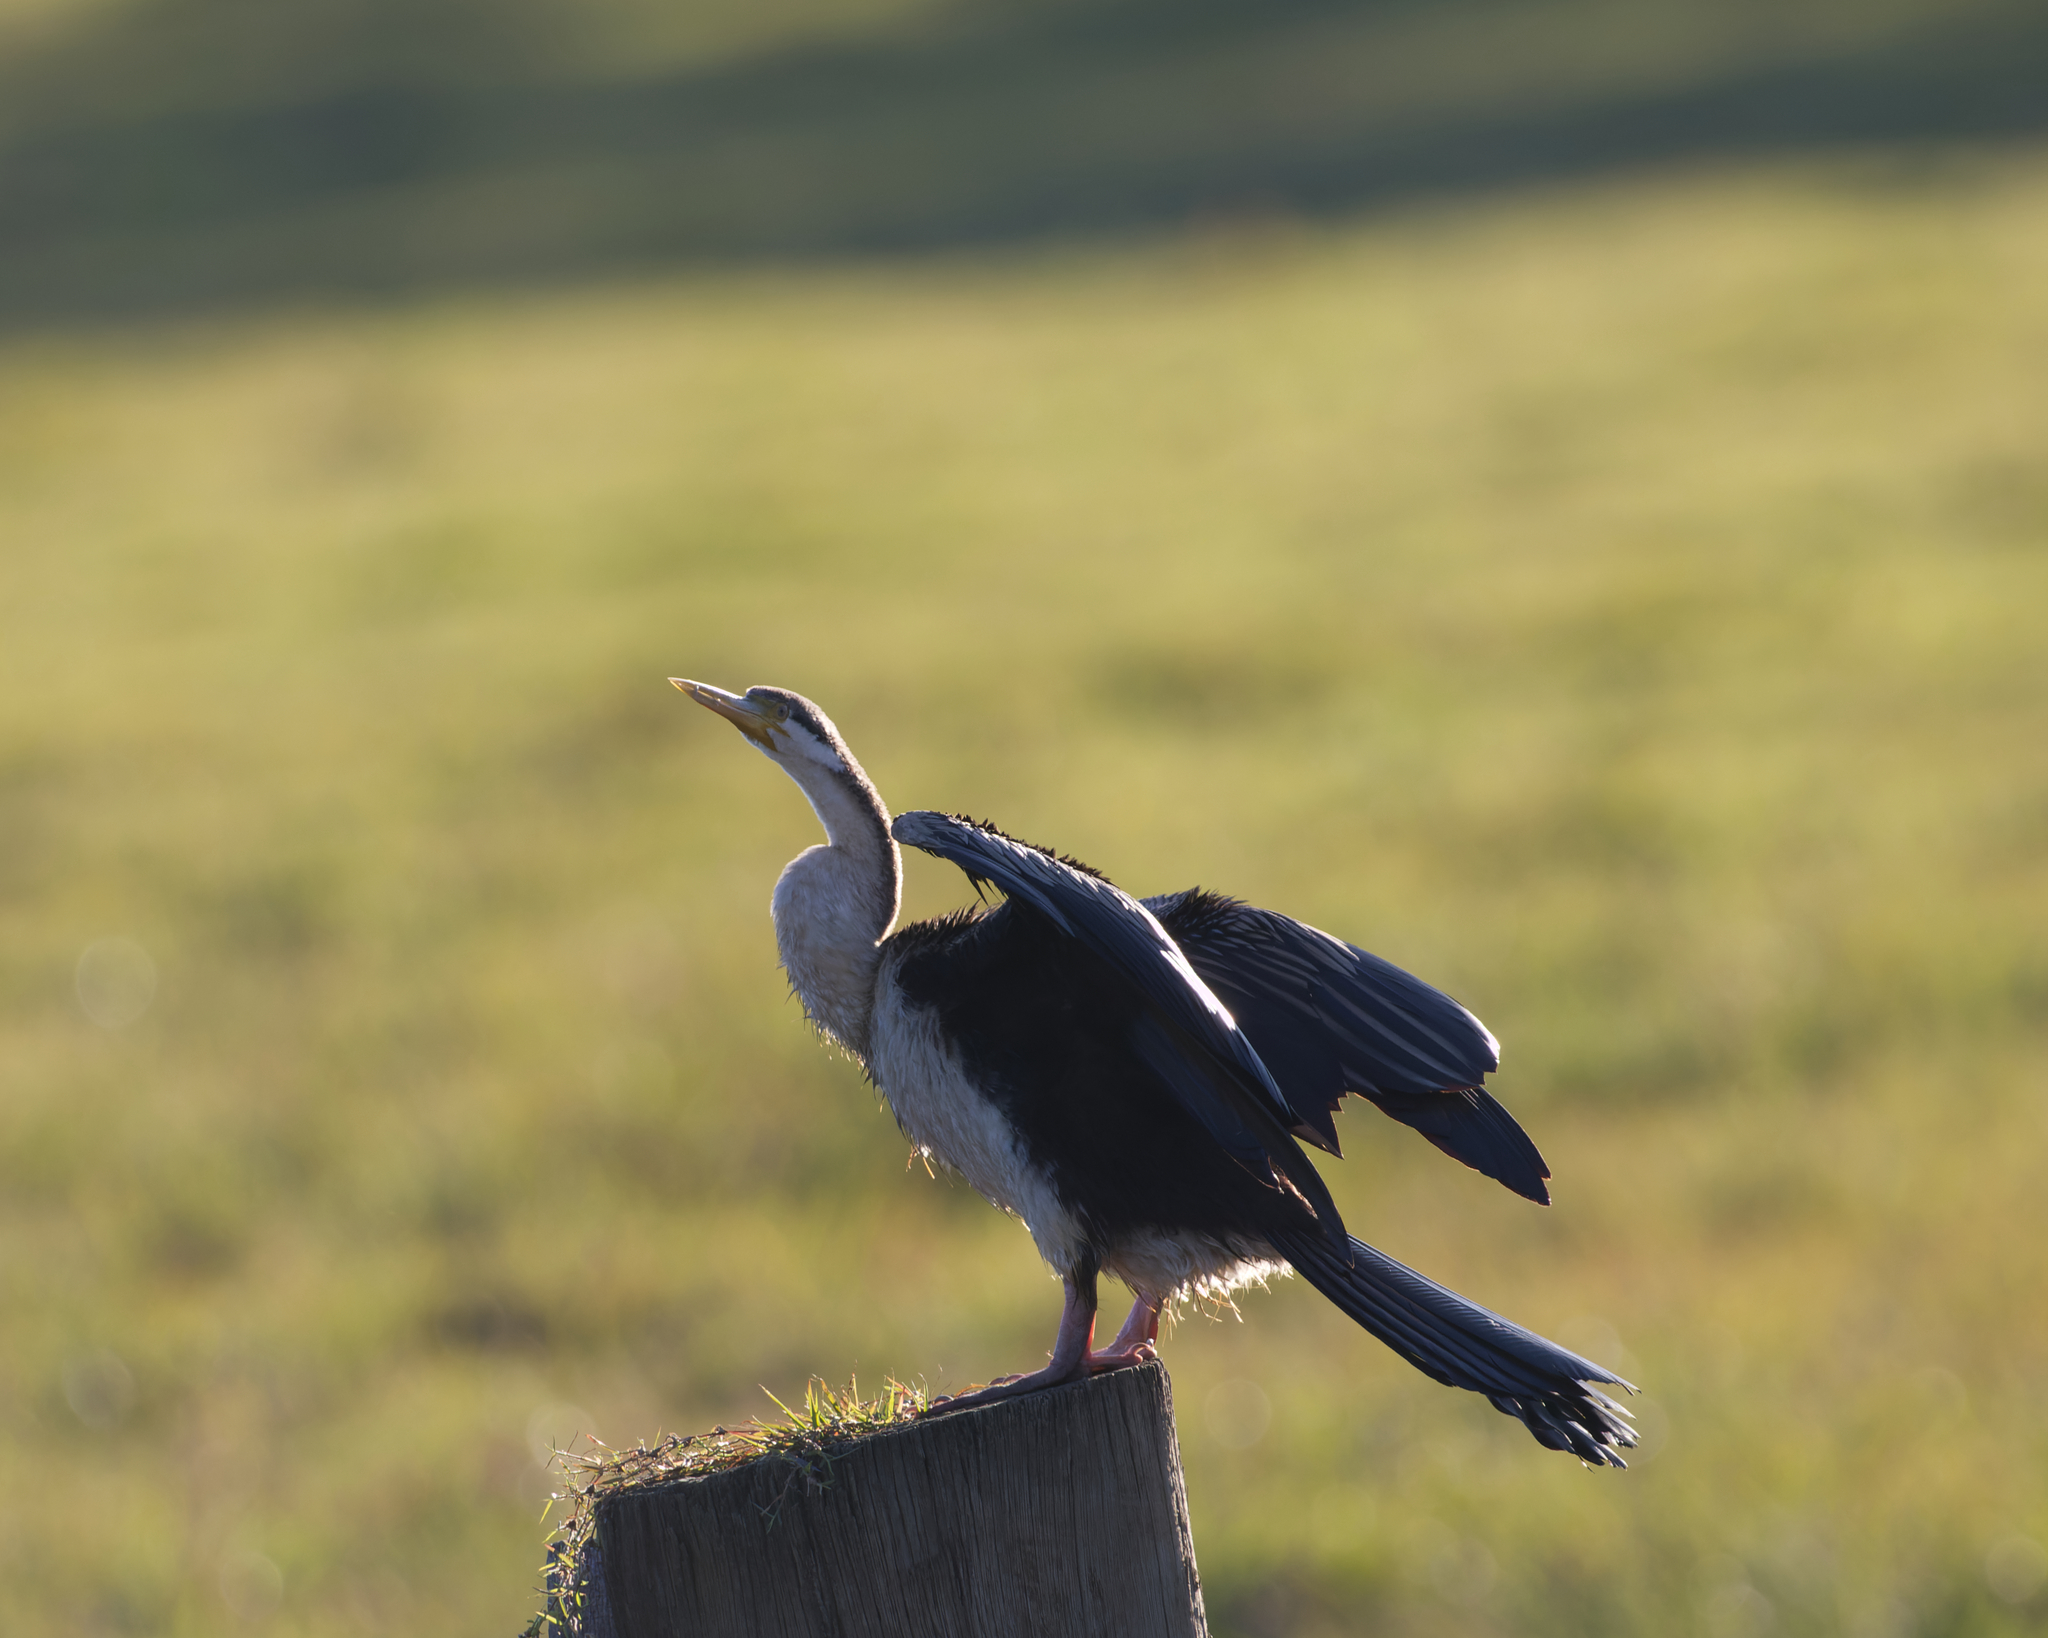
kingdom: Animalia
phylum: Chordata
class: Aves
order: Suliformes
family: Anhingidae
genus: Anhinga
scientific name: Anhinga novaehollandiae
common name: Australasian darter
